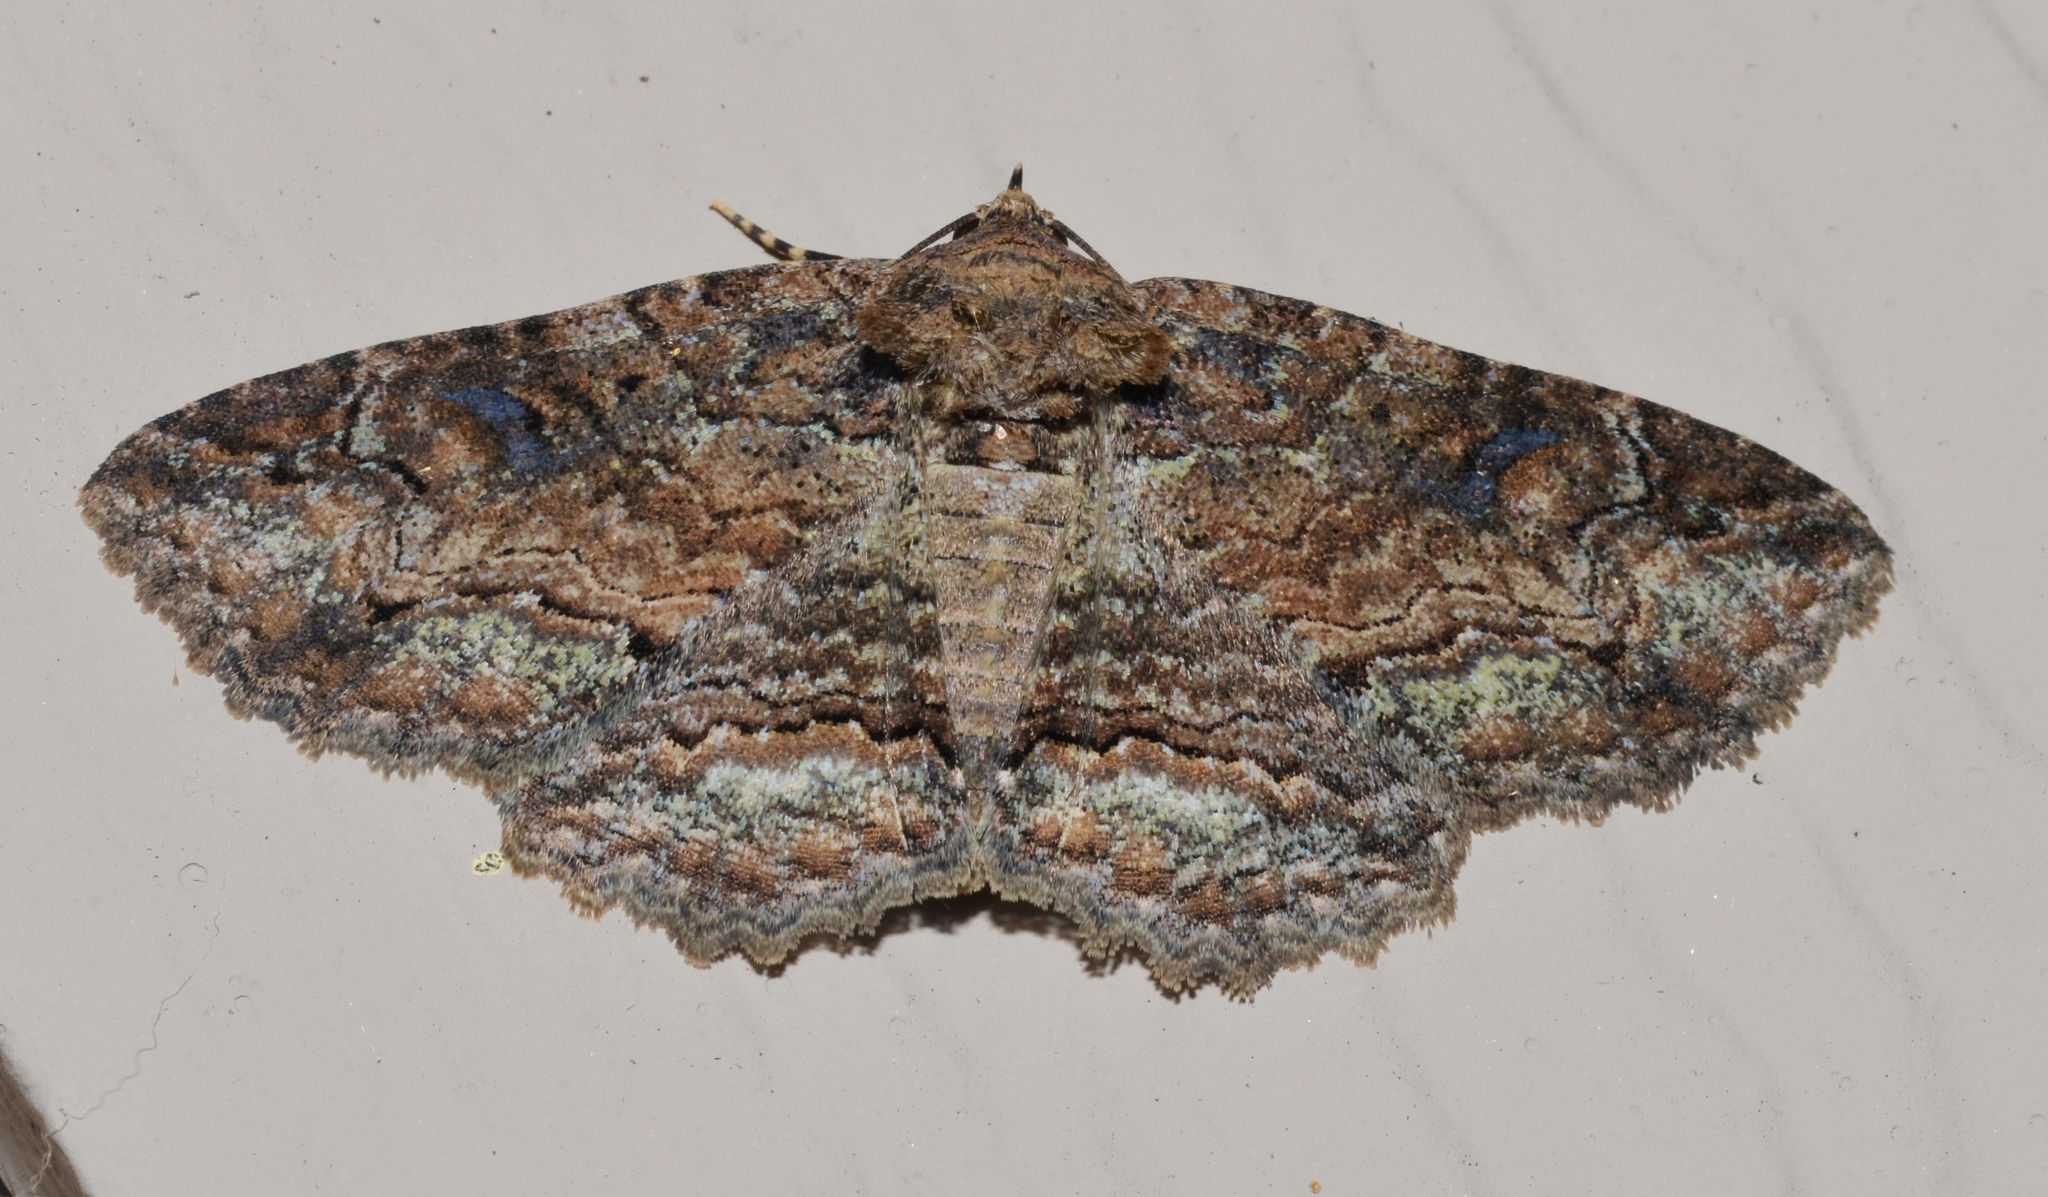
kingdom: Animalia
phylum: Arthropoda
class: Insecta
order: Lepidoptera
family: Erebidae
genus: Zale
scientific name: Zale galbanata
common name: Maple zale
